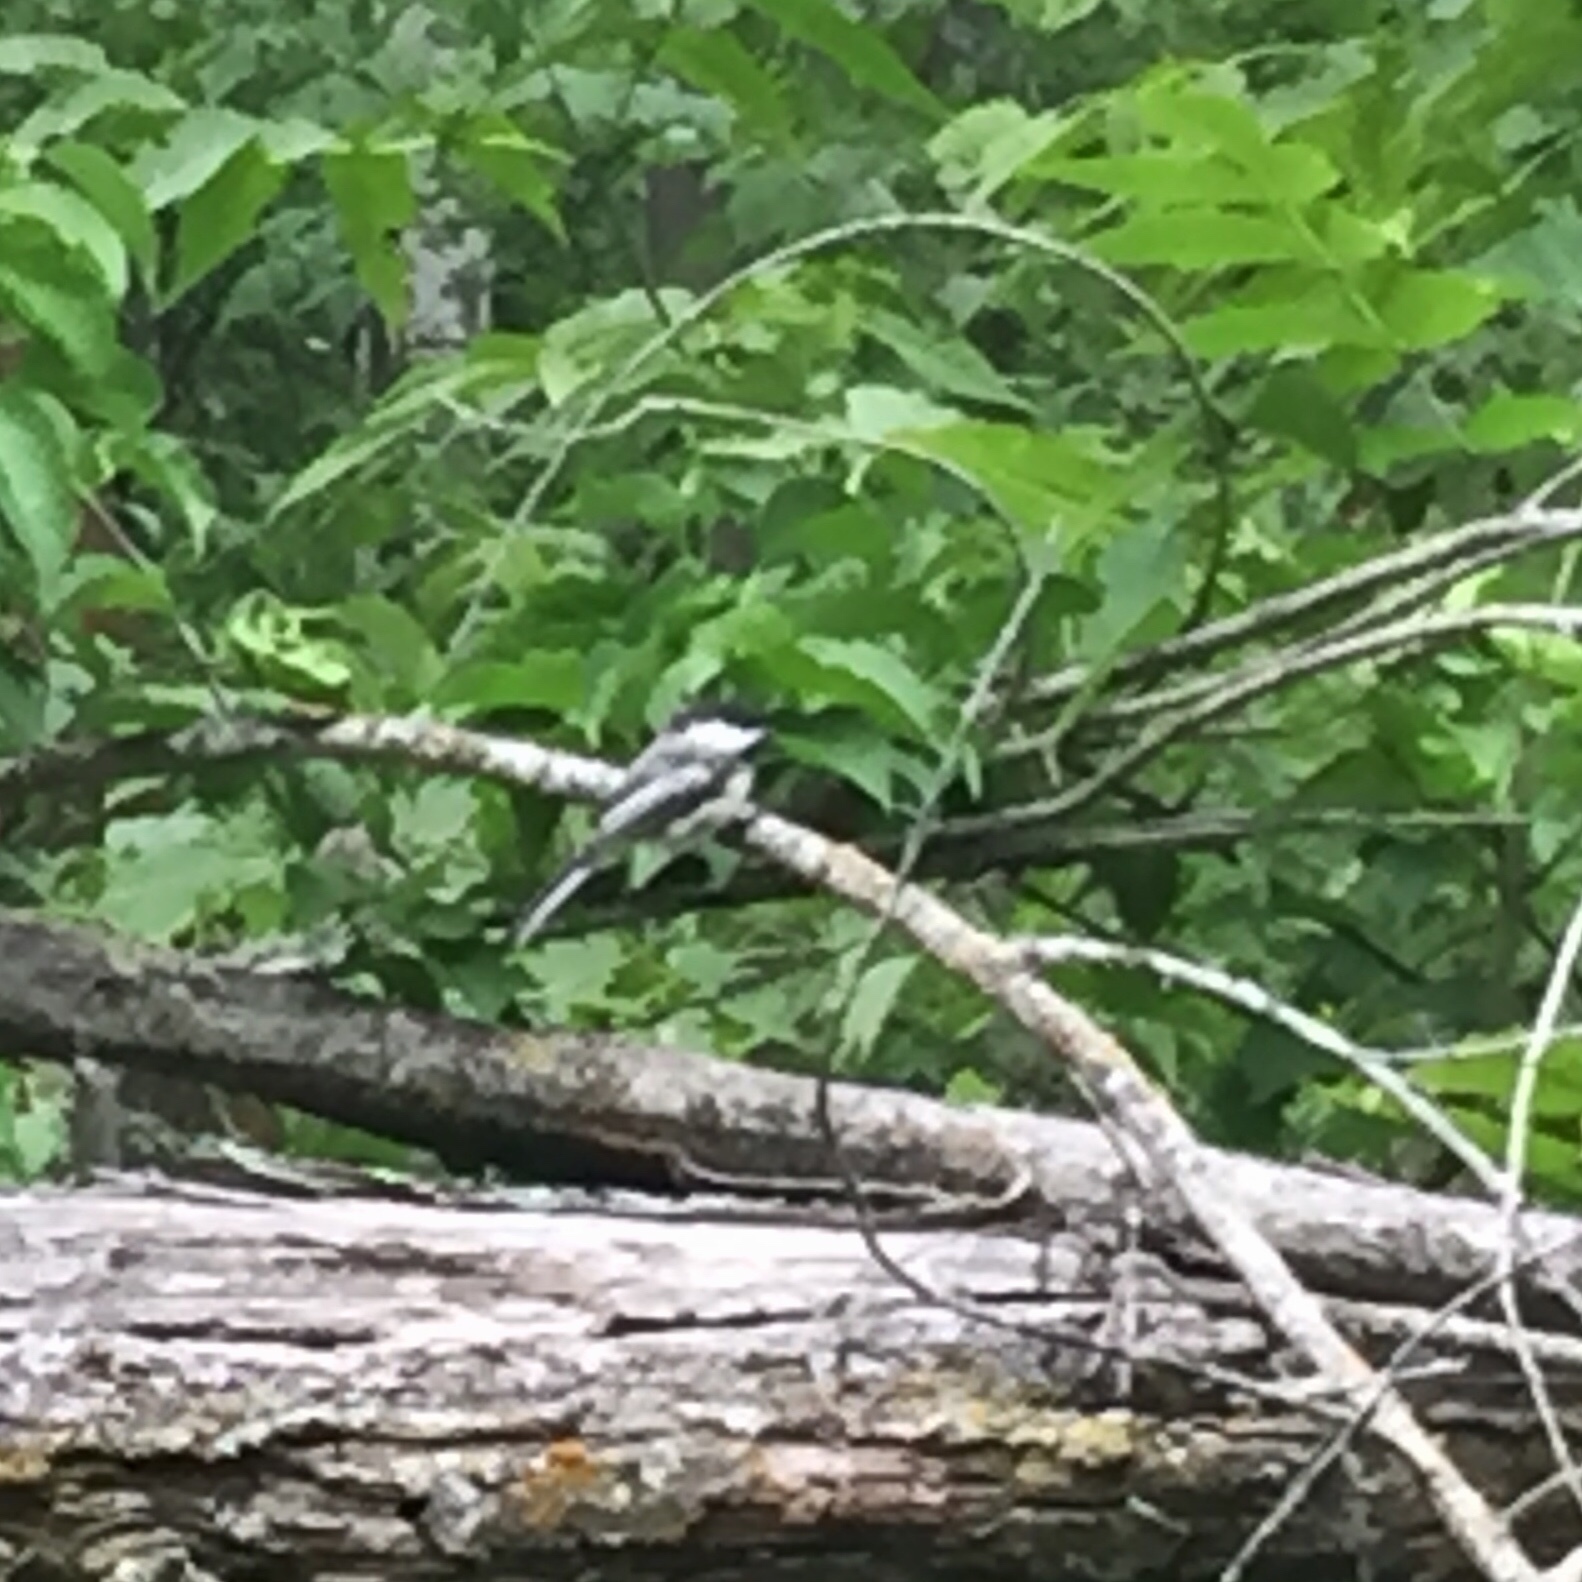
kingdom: Animalia
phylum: Chordata
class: Aves
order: Passeriformes
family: Paridae
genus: Poecile
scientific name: Poecile atricapillus
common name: Black-capped chickadee
